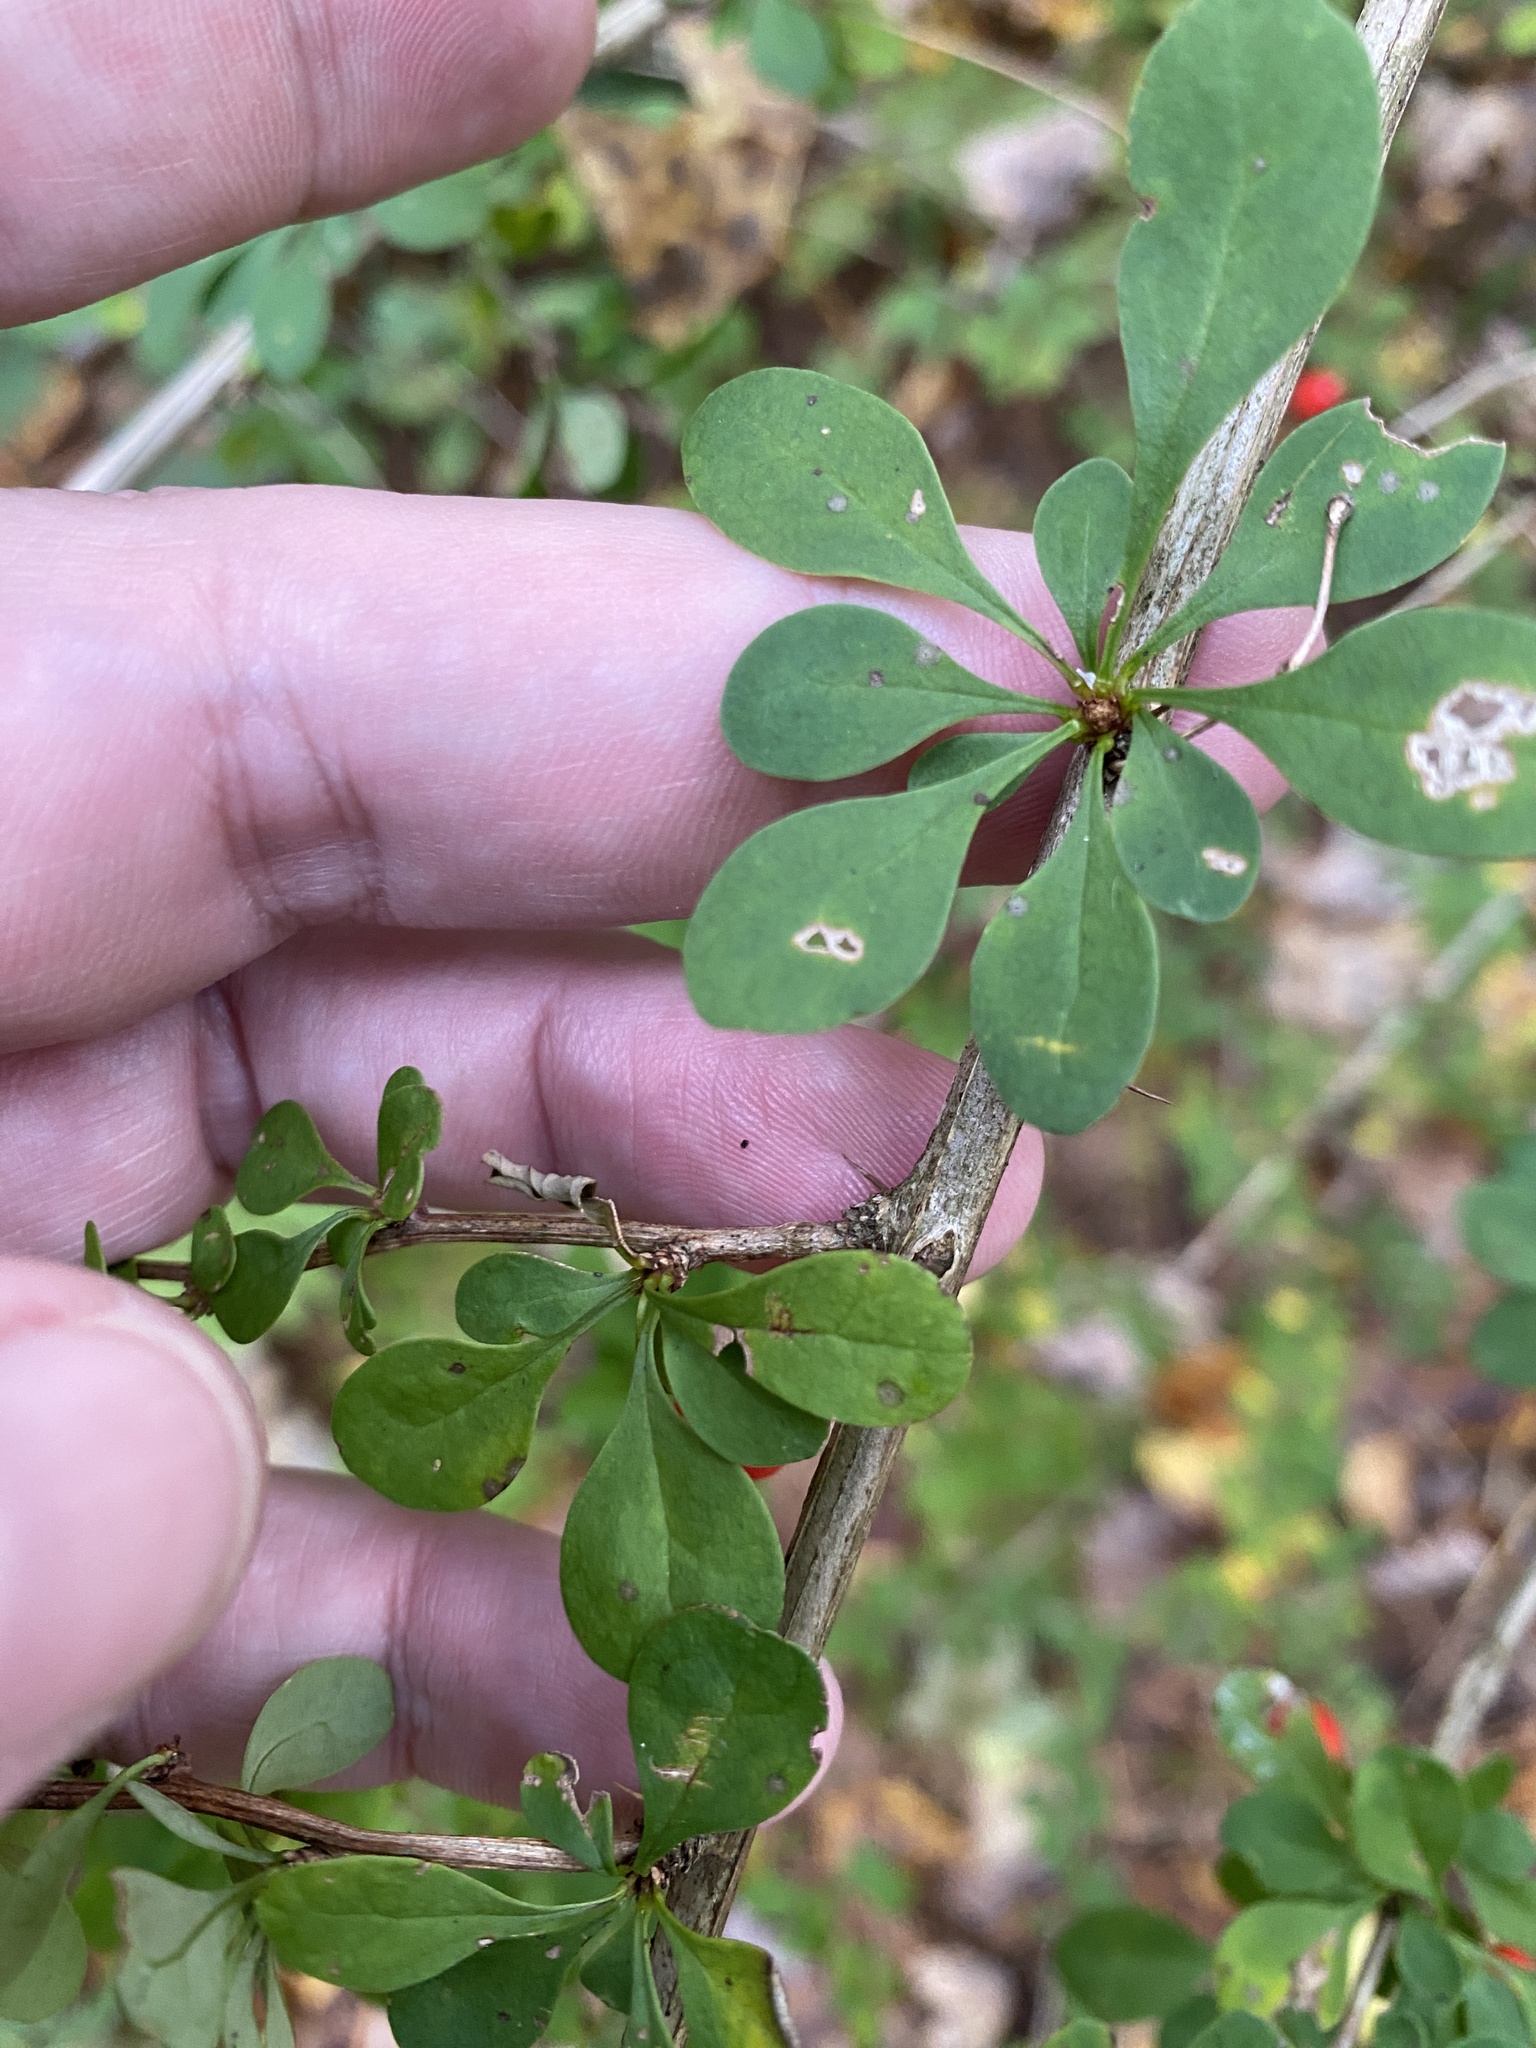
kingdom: Plantae
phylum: Tracheophyta
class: Magnoliopsida
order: Ranunculales
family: Berberidaceae
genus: Berberis
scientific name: Berberis thunbergii
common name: Japanese barberry
